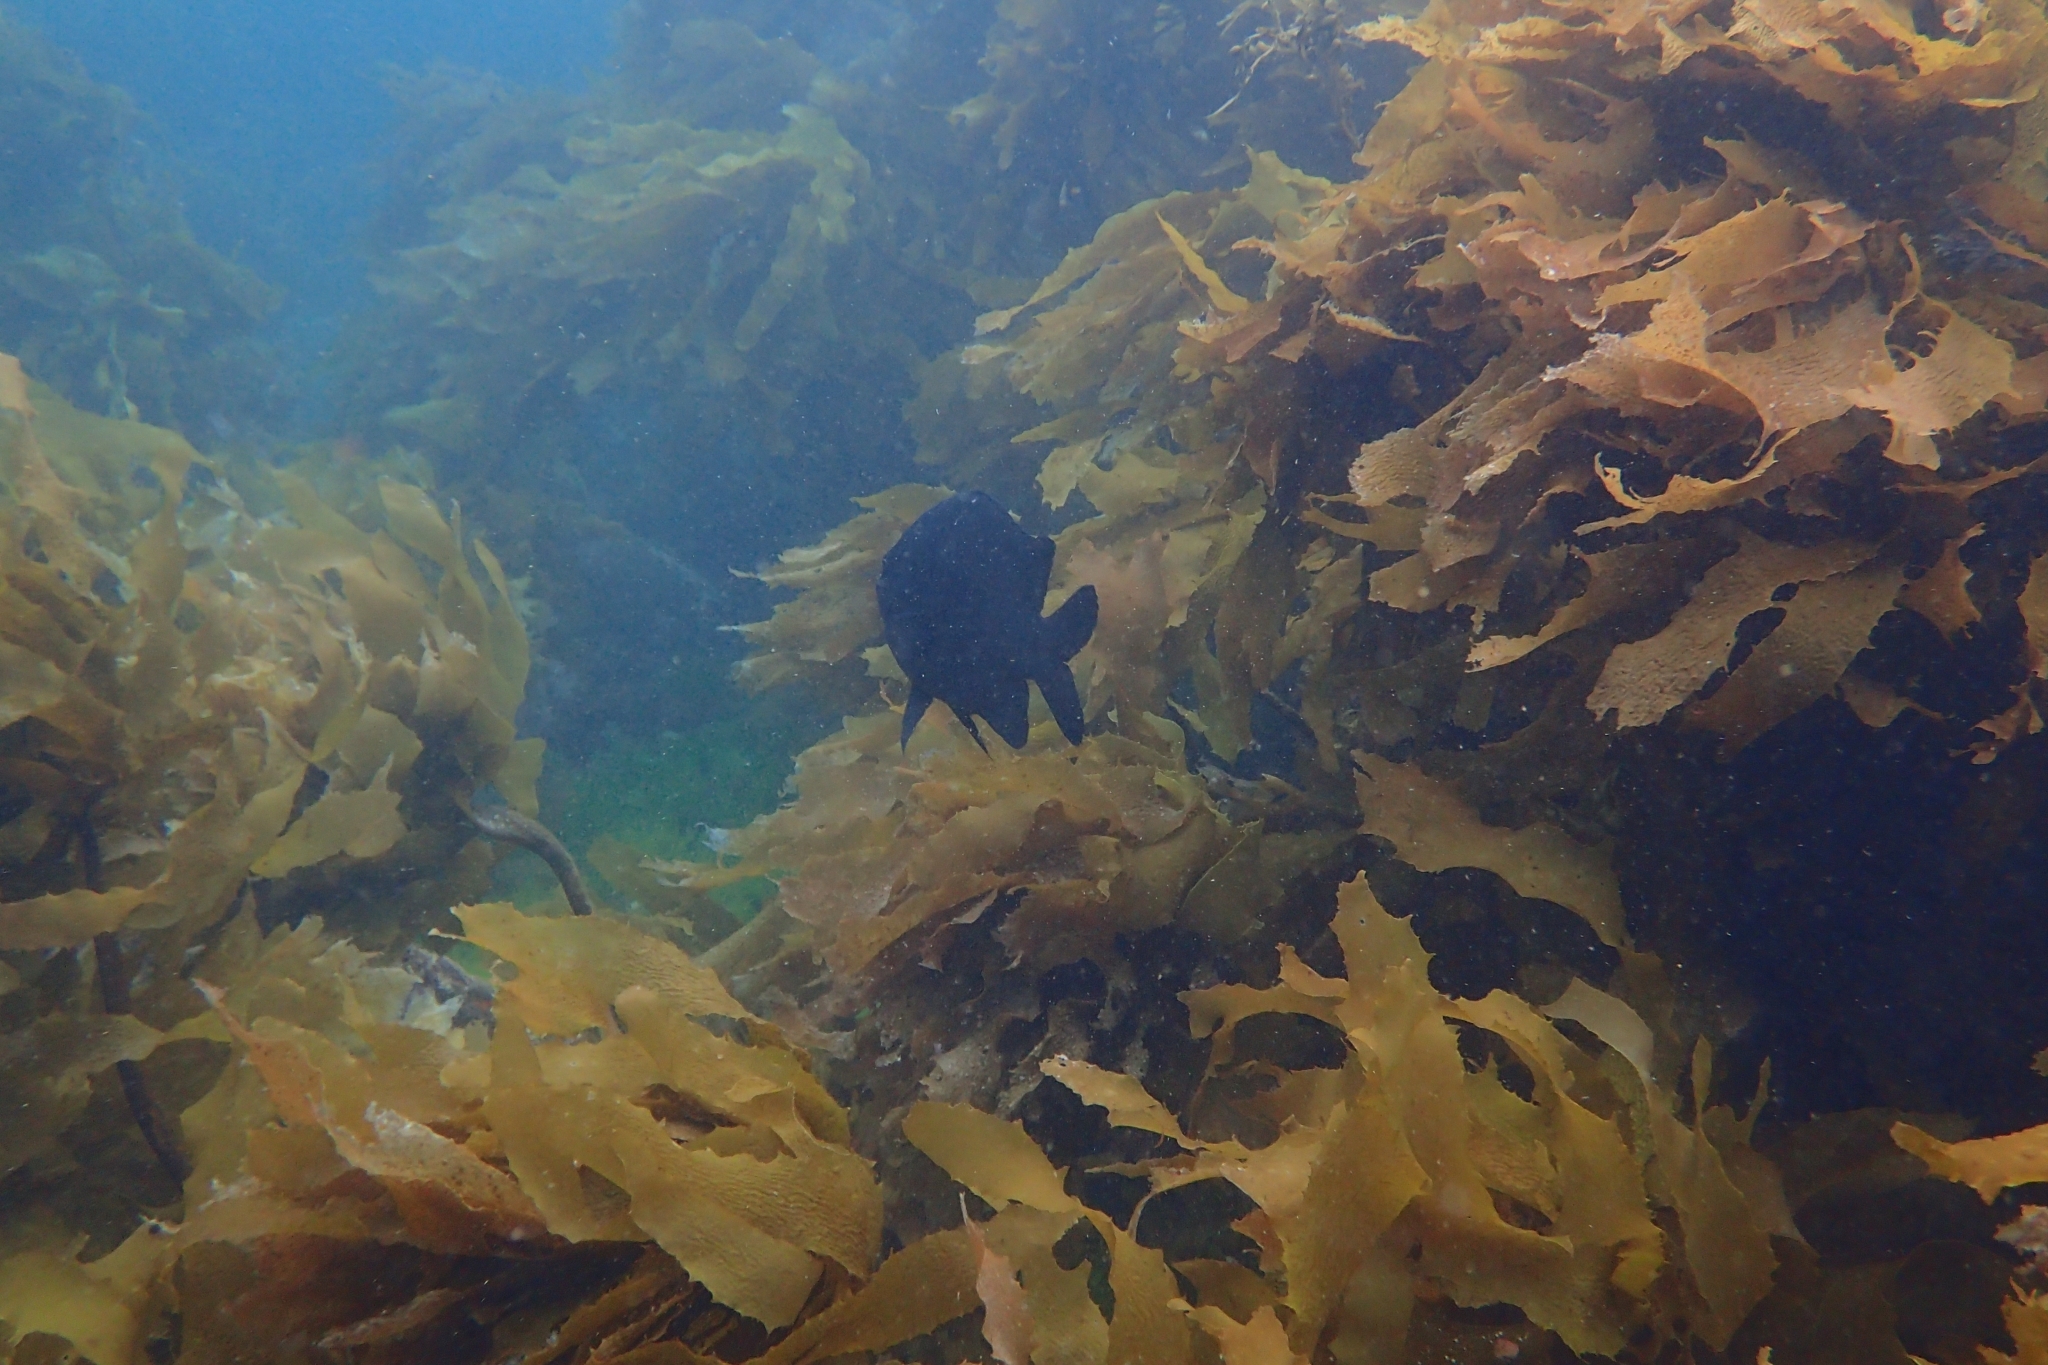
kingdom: Animalia
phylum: Chordata
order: Perciformes
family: Pomacentridae
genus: Parma
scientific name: Parma alboscapularis
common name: Black angelfish
